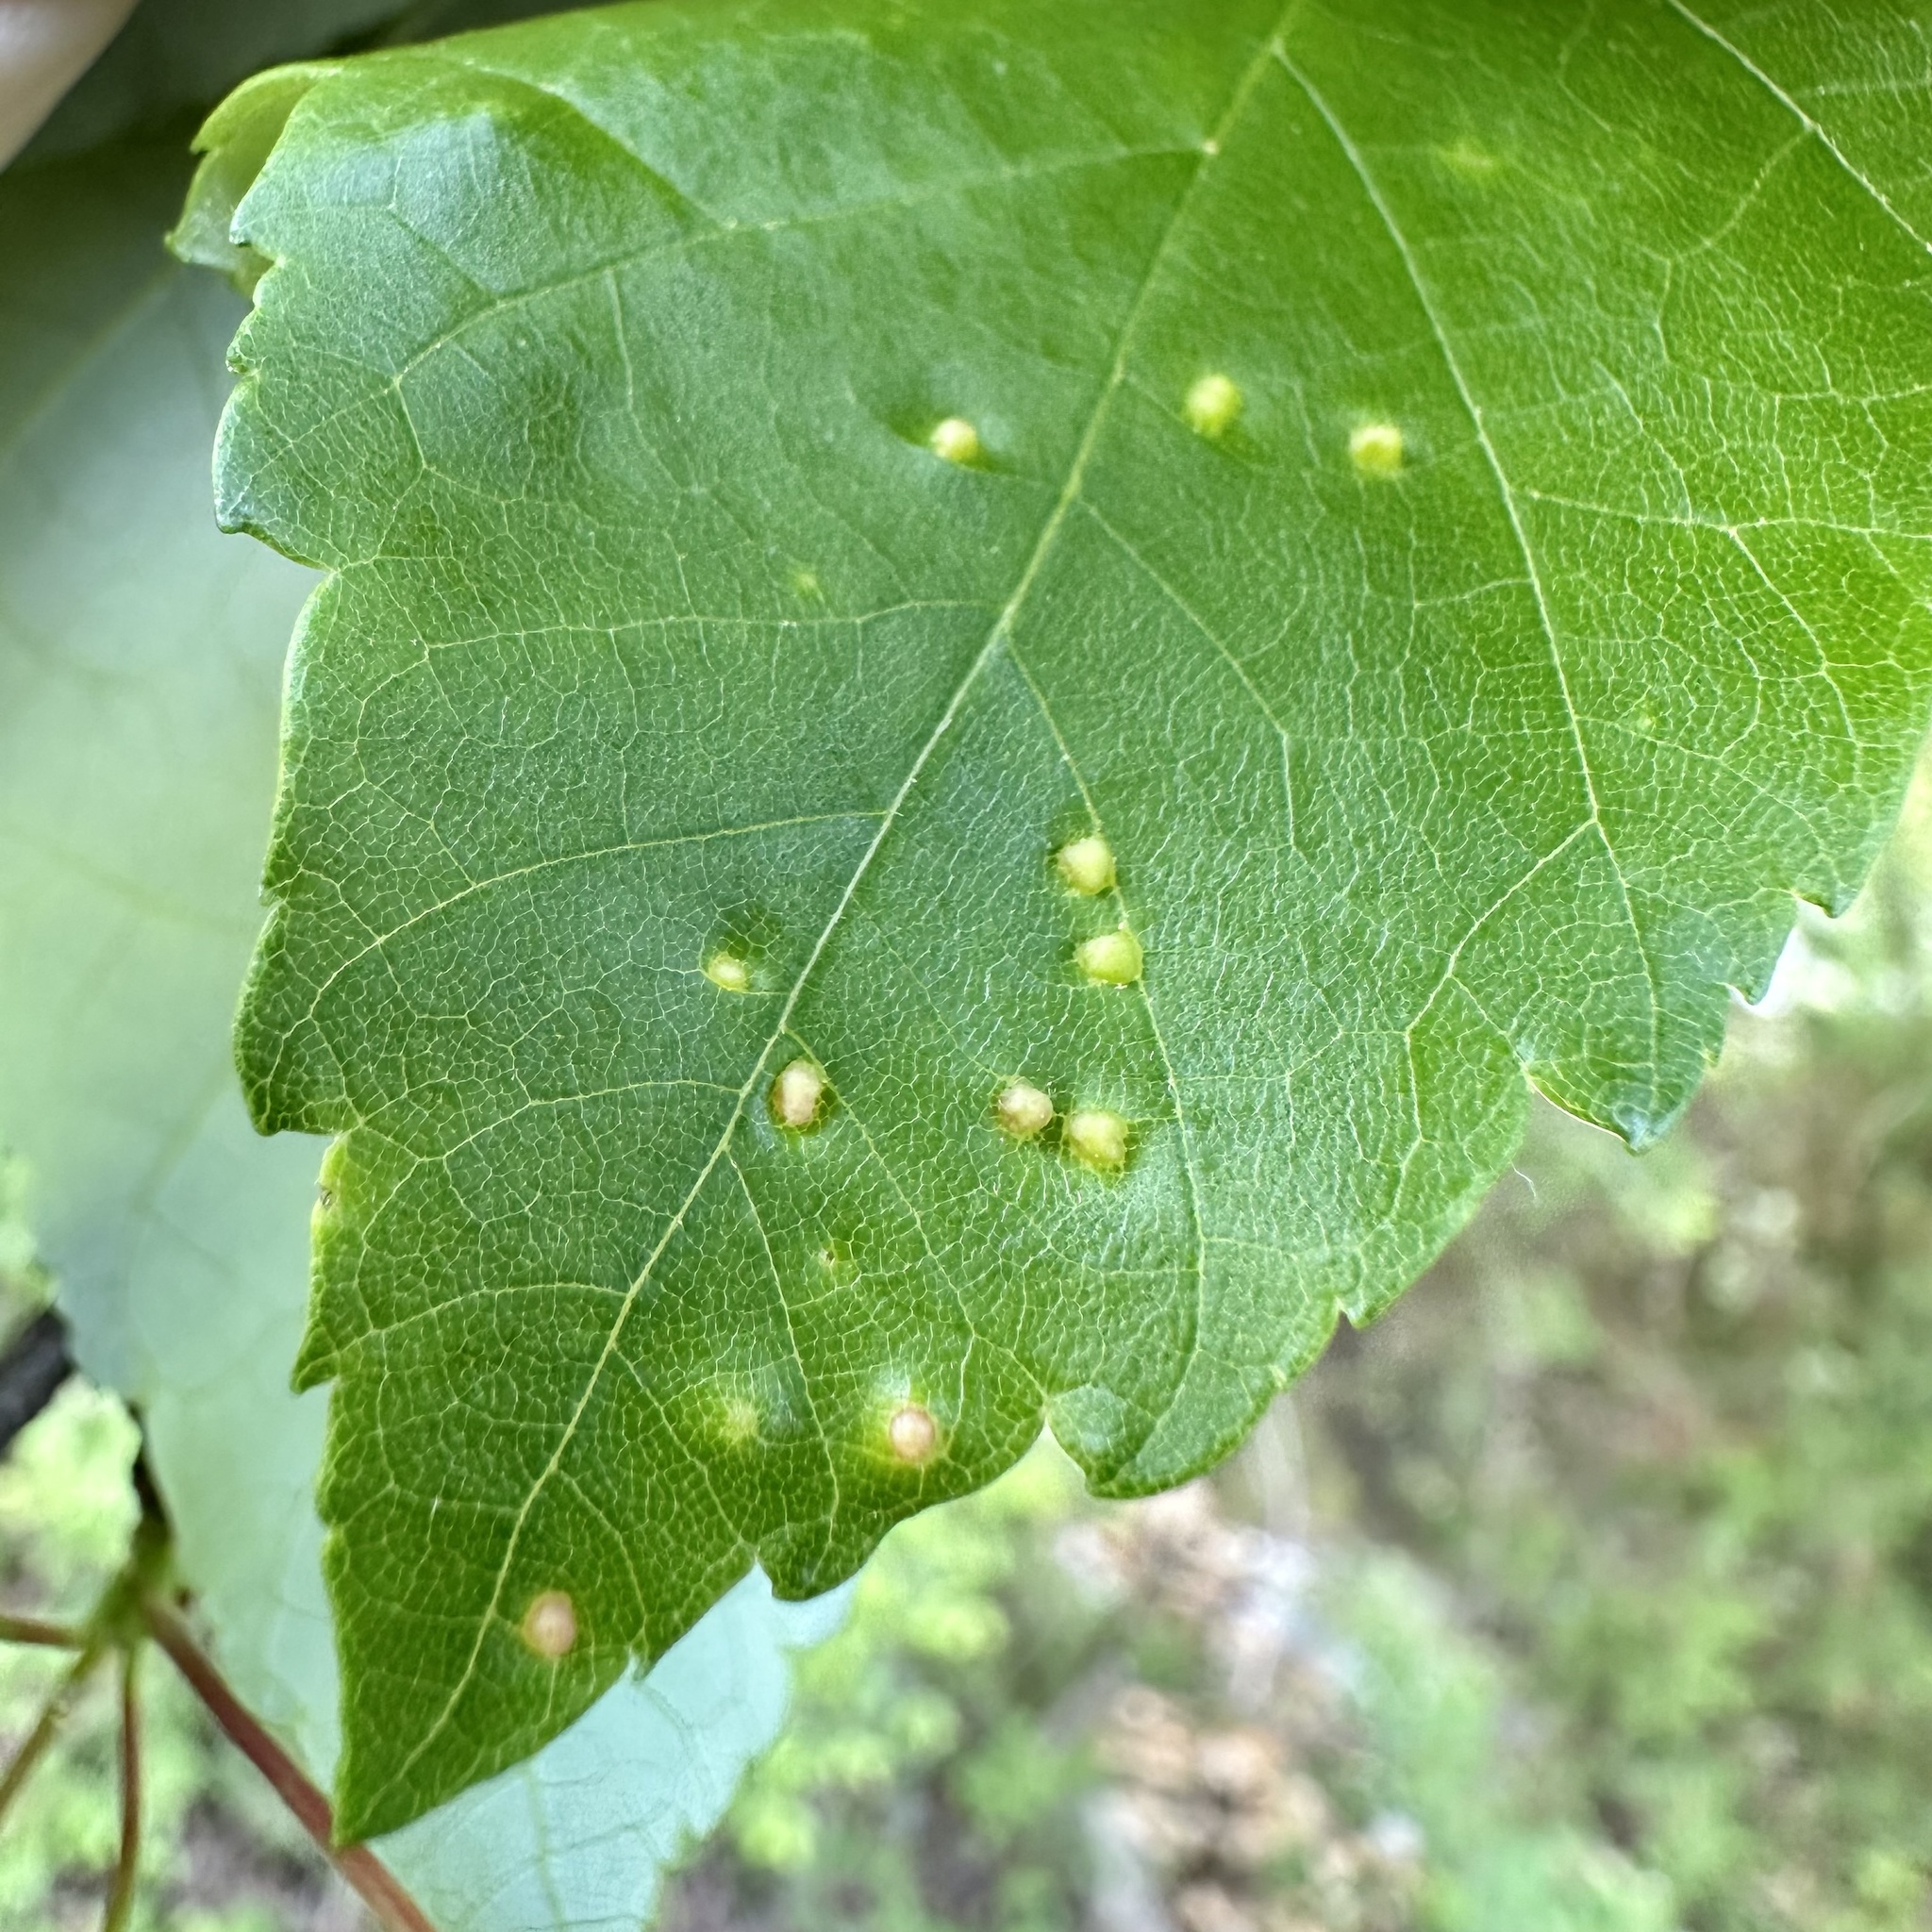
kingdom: Animalia
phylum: Arthropoda
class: Arachnida
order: Trombidiformes
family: Eriophyidae
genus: Vasates
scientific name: Vasates quadripedes
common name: Maple bladder gall mite
